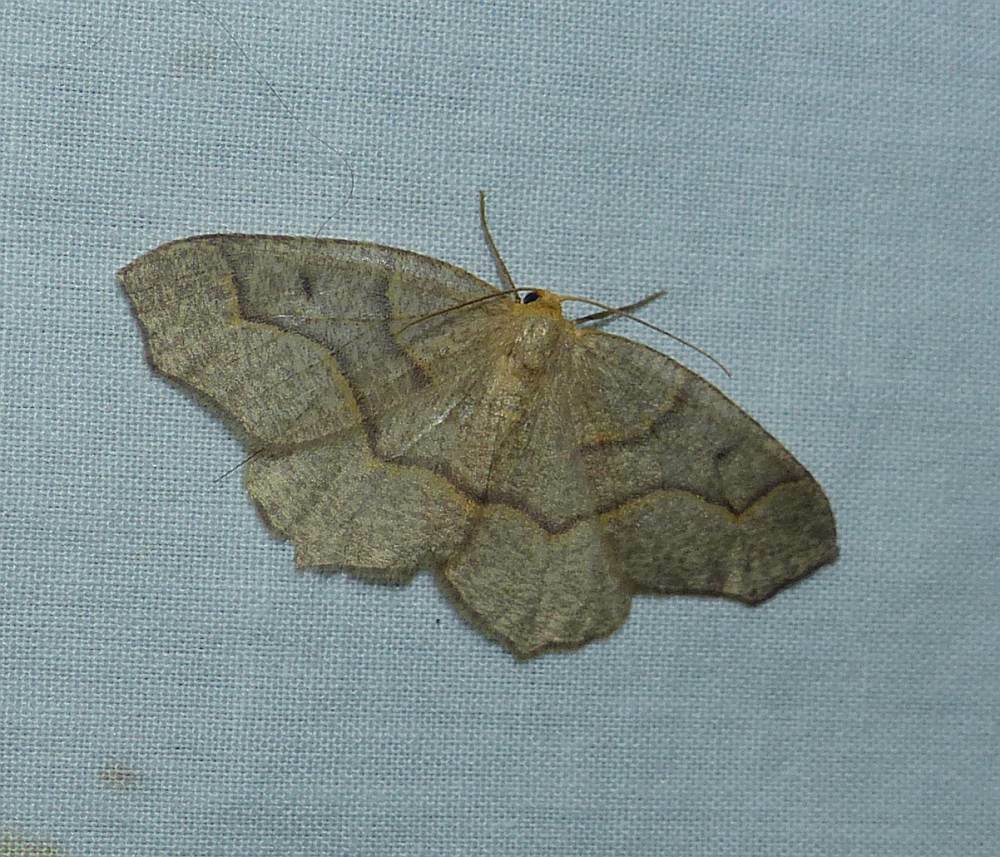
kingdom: Animalia
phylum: Arthropoda
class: Insecta
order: Lepidoptera
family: Geometridae
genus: Lambdina
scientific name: Lambdina fiscellaria
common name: Hemlock looper
